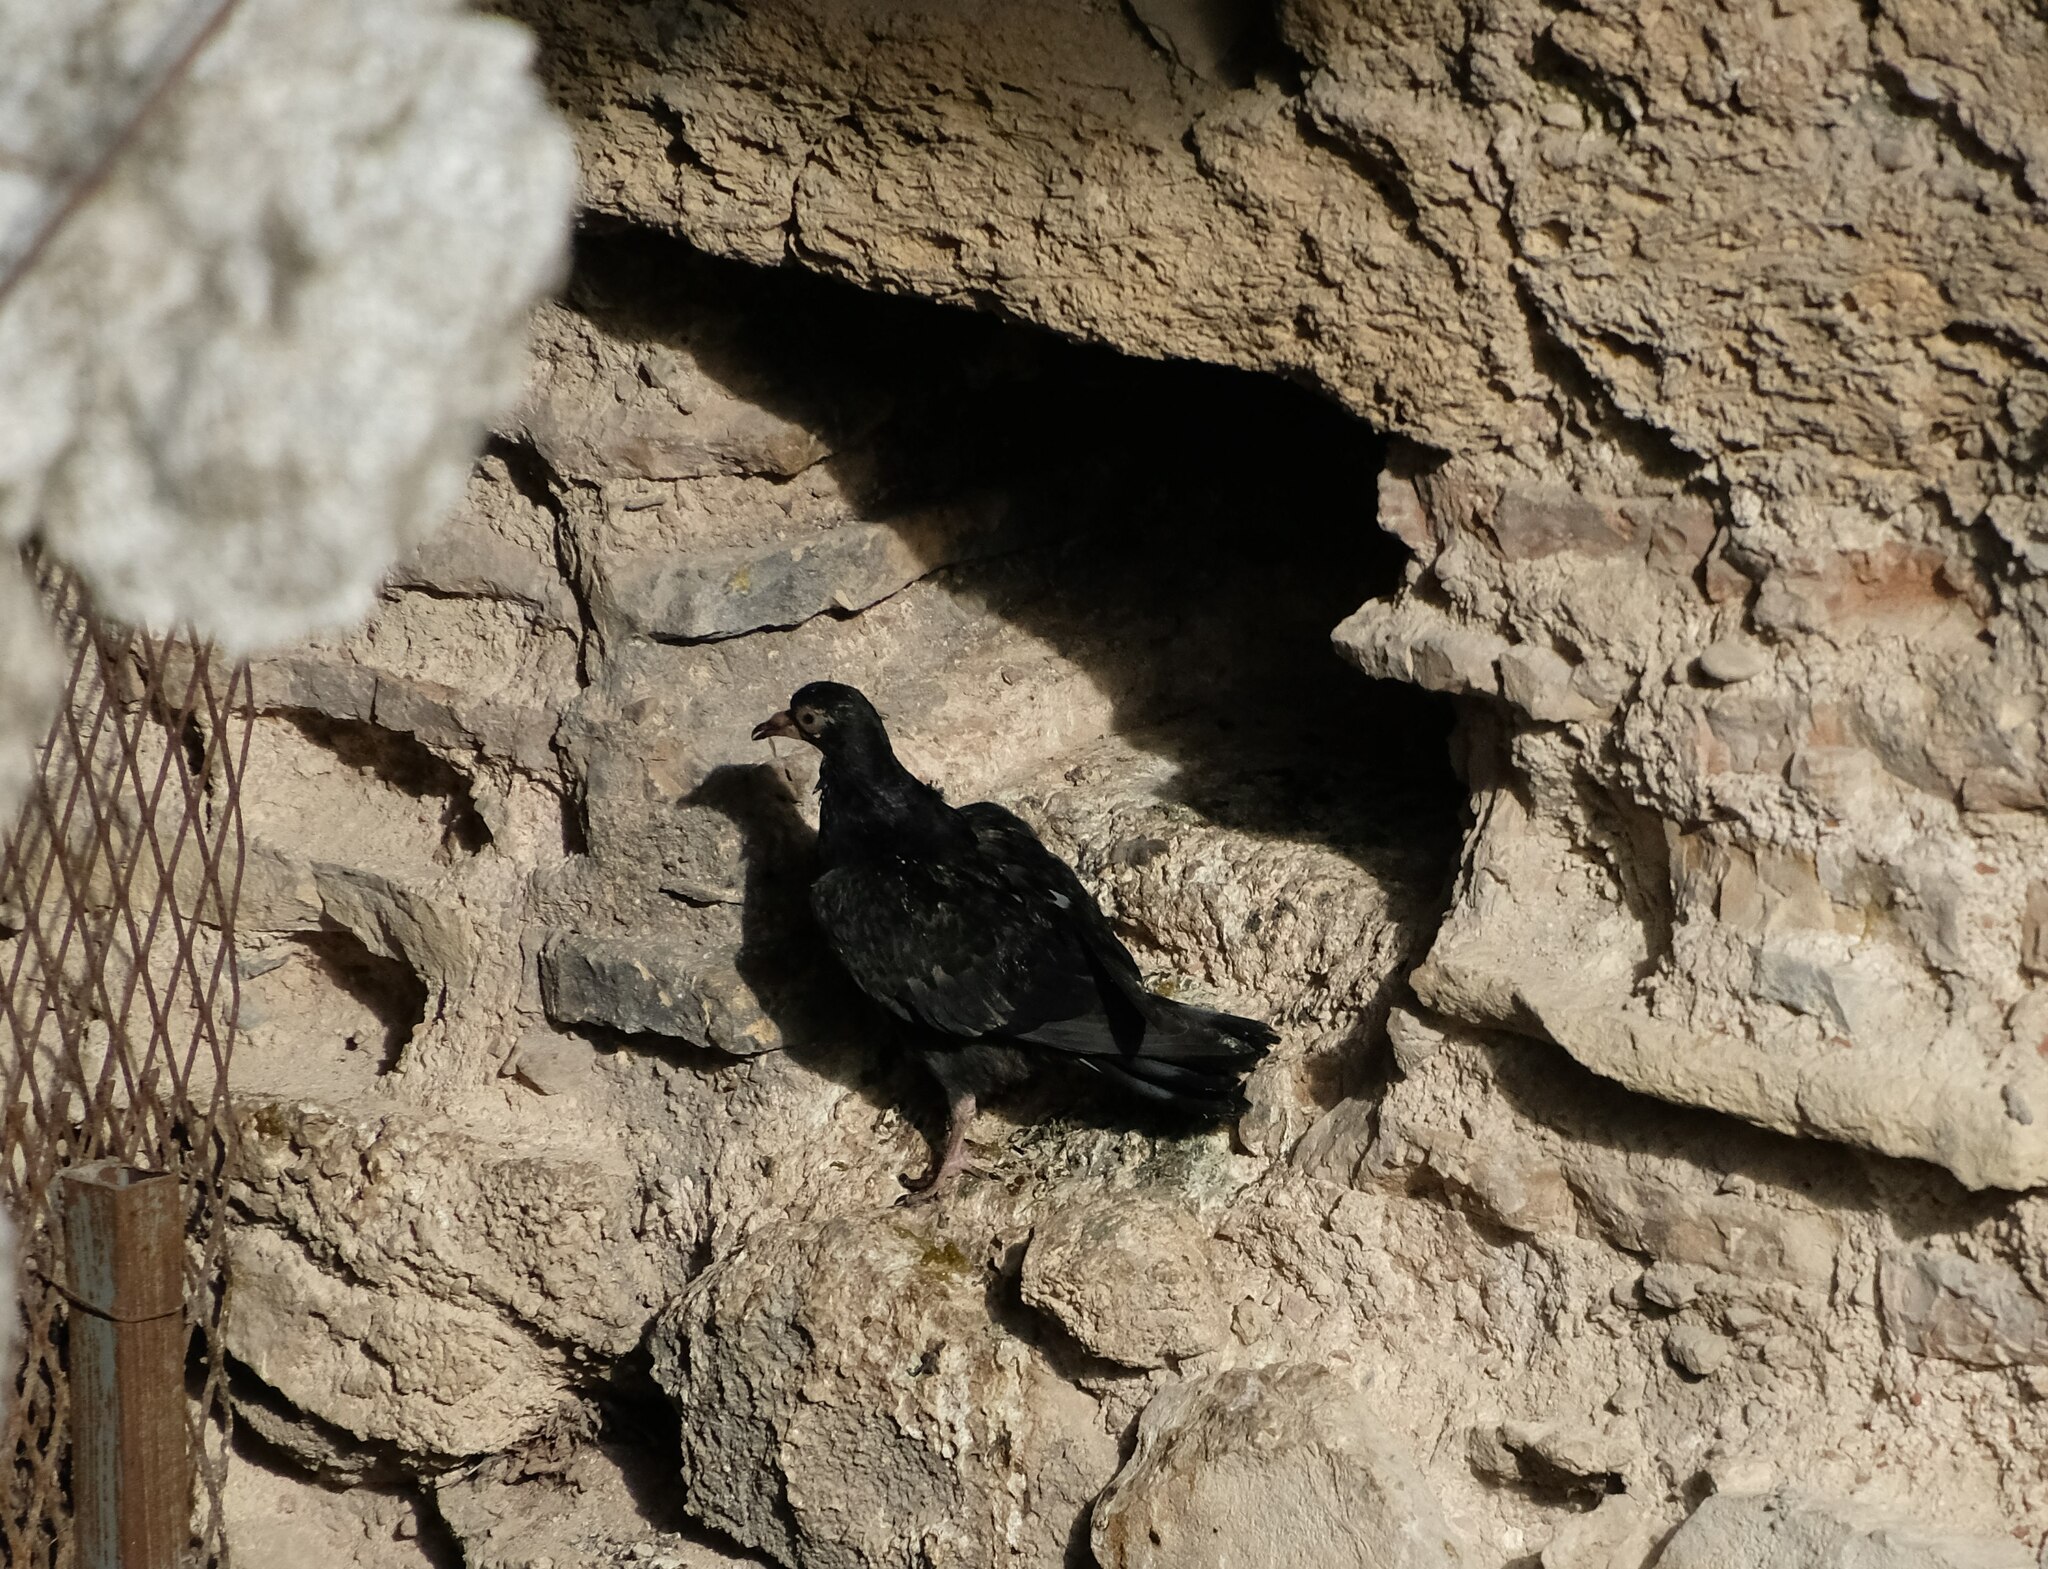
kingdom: Animalia
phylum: Chordata
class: Aves
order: Columbiformes
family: Columbidae
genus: Columba
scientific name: Columba livia
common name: Rock pigeon
